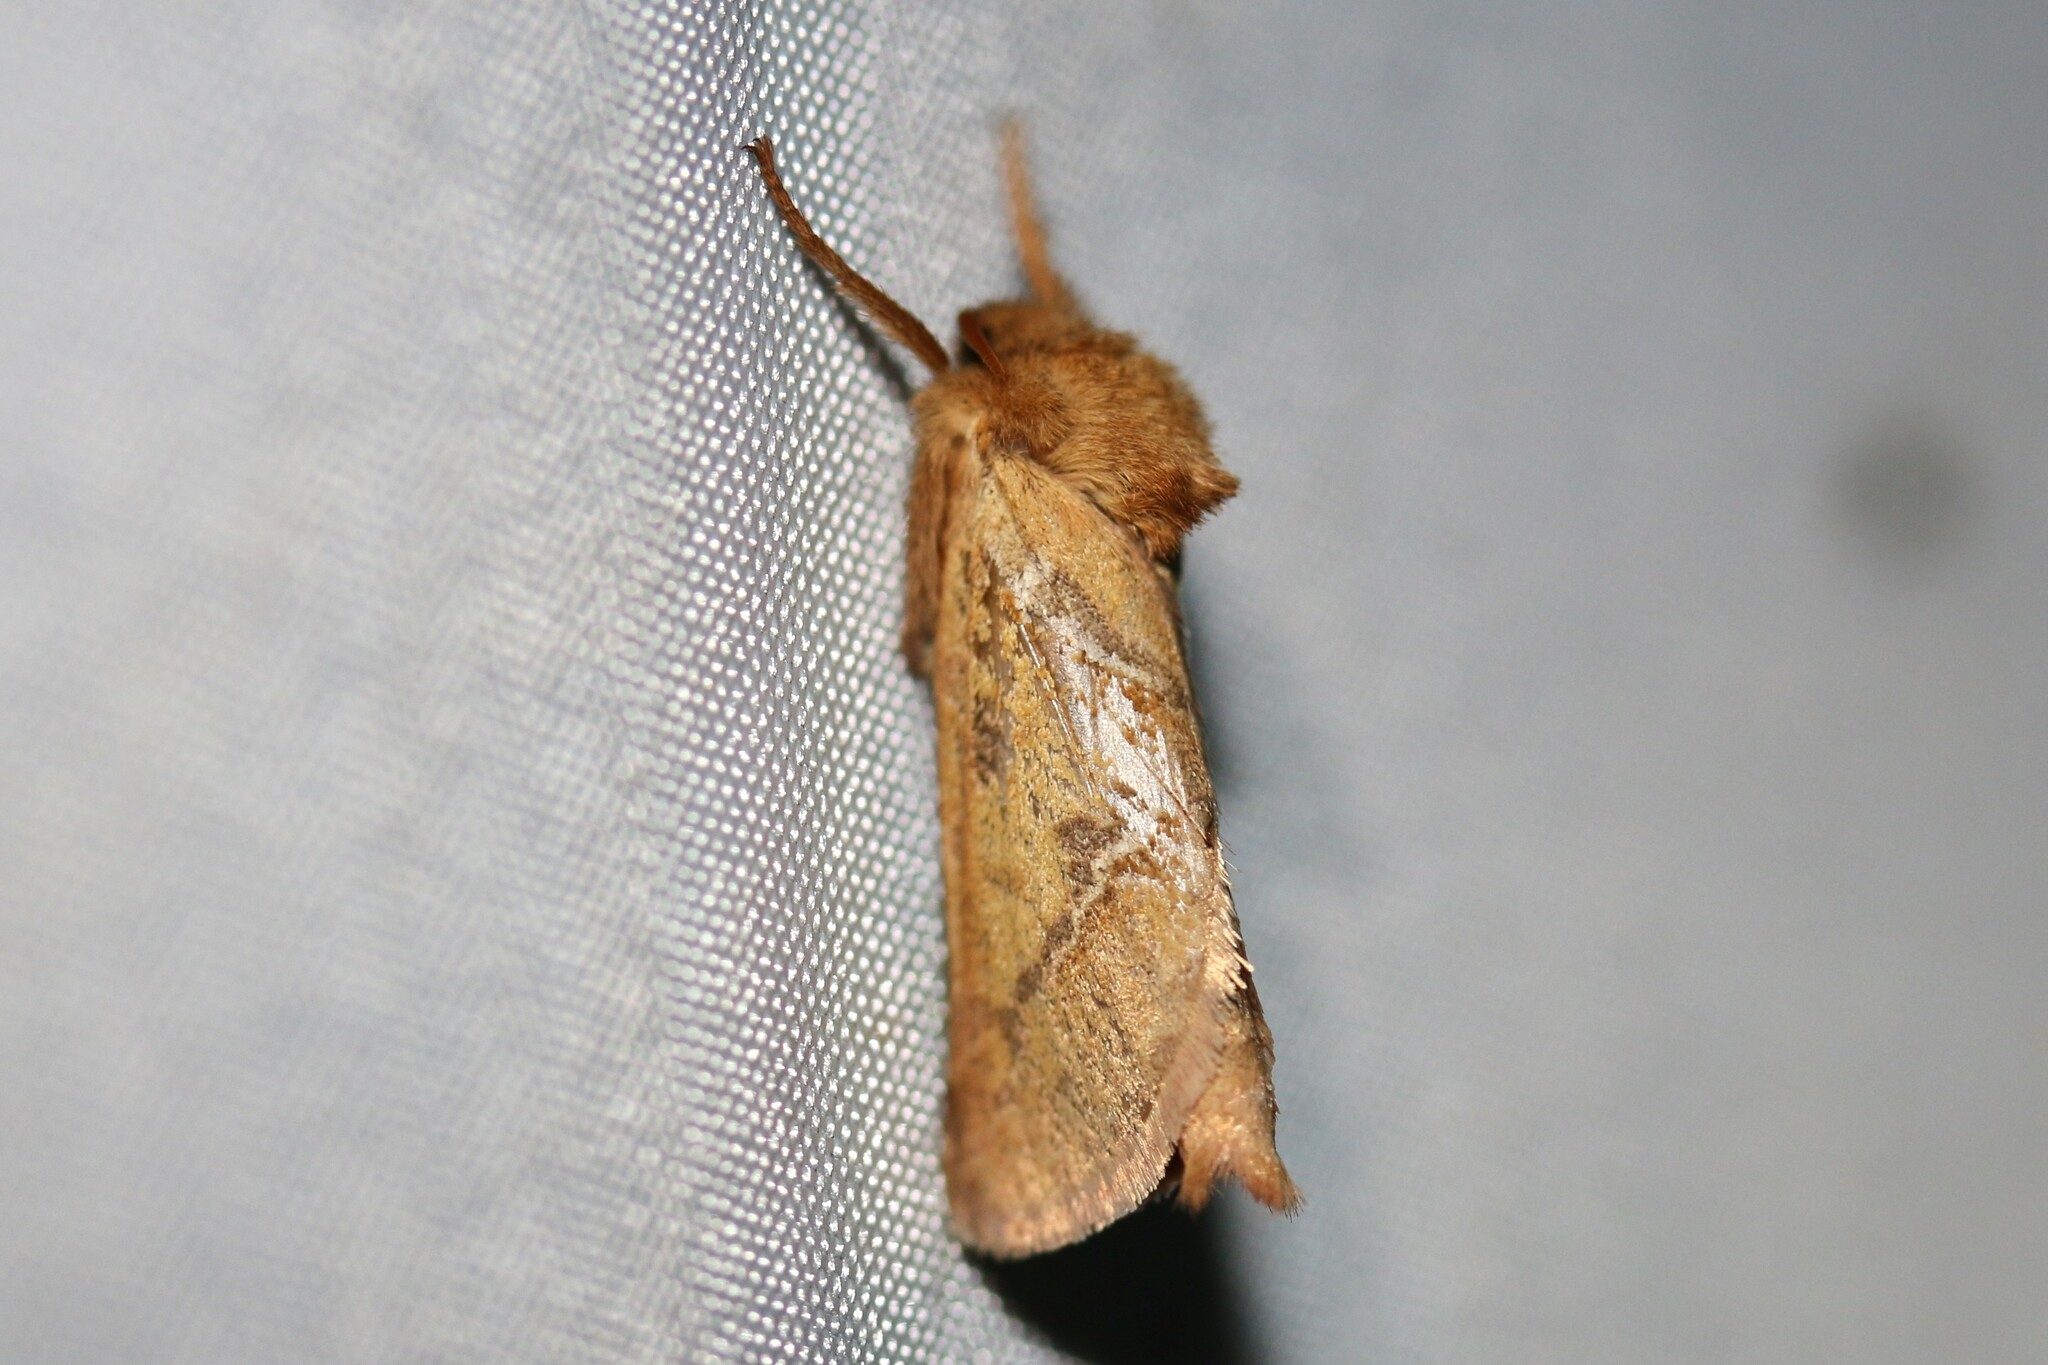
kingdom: Animalia
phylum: Arthropoda
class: Insecta
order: Lepidoptera
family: Hepialidae
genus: Triodia
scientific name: Triodia sylvina
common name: Orange swift
